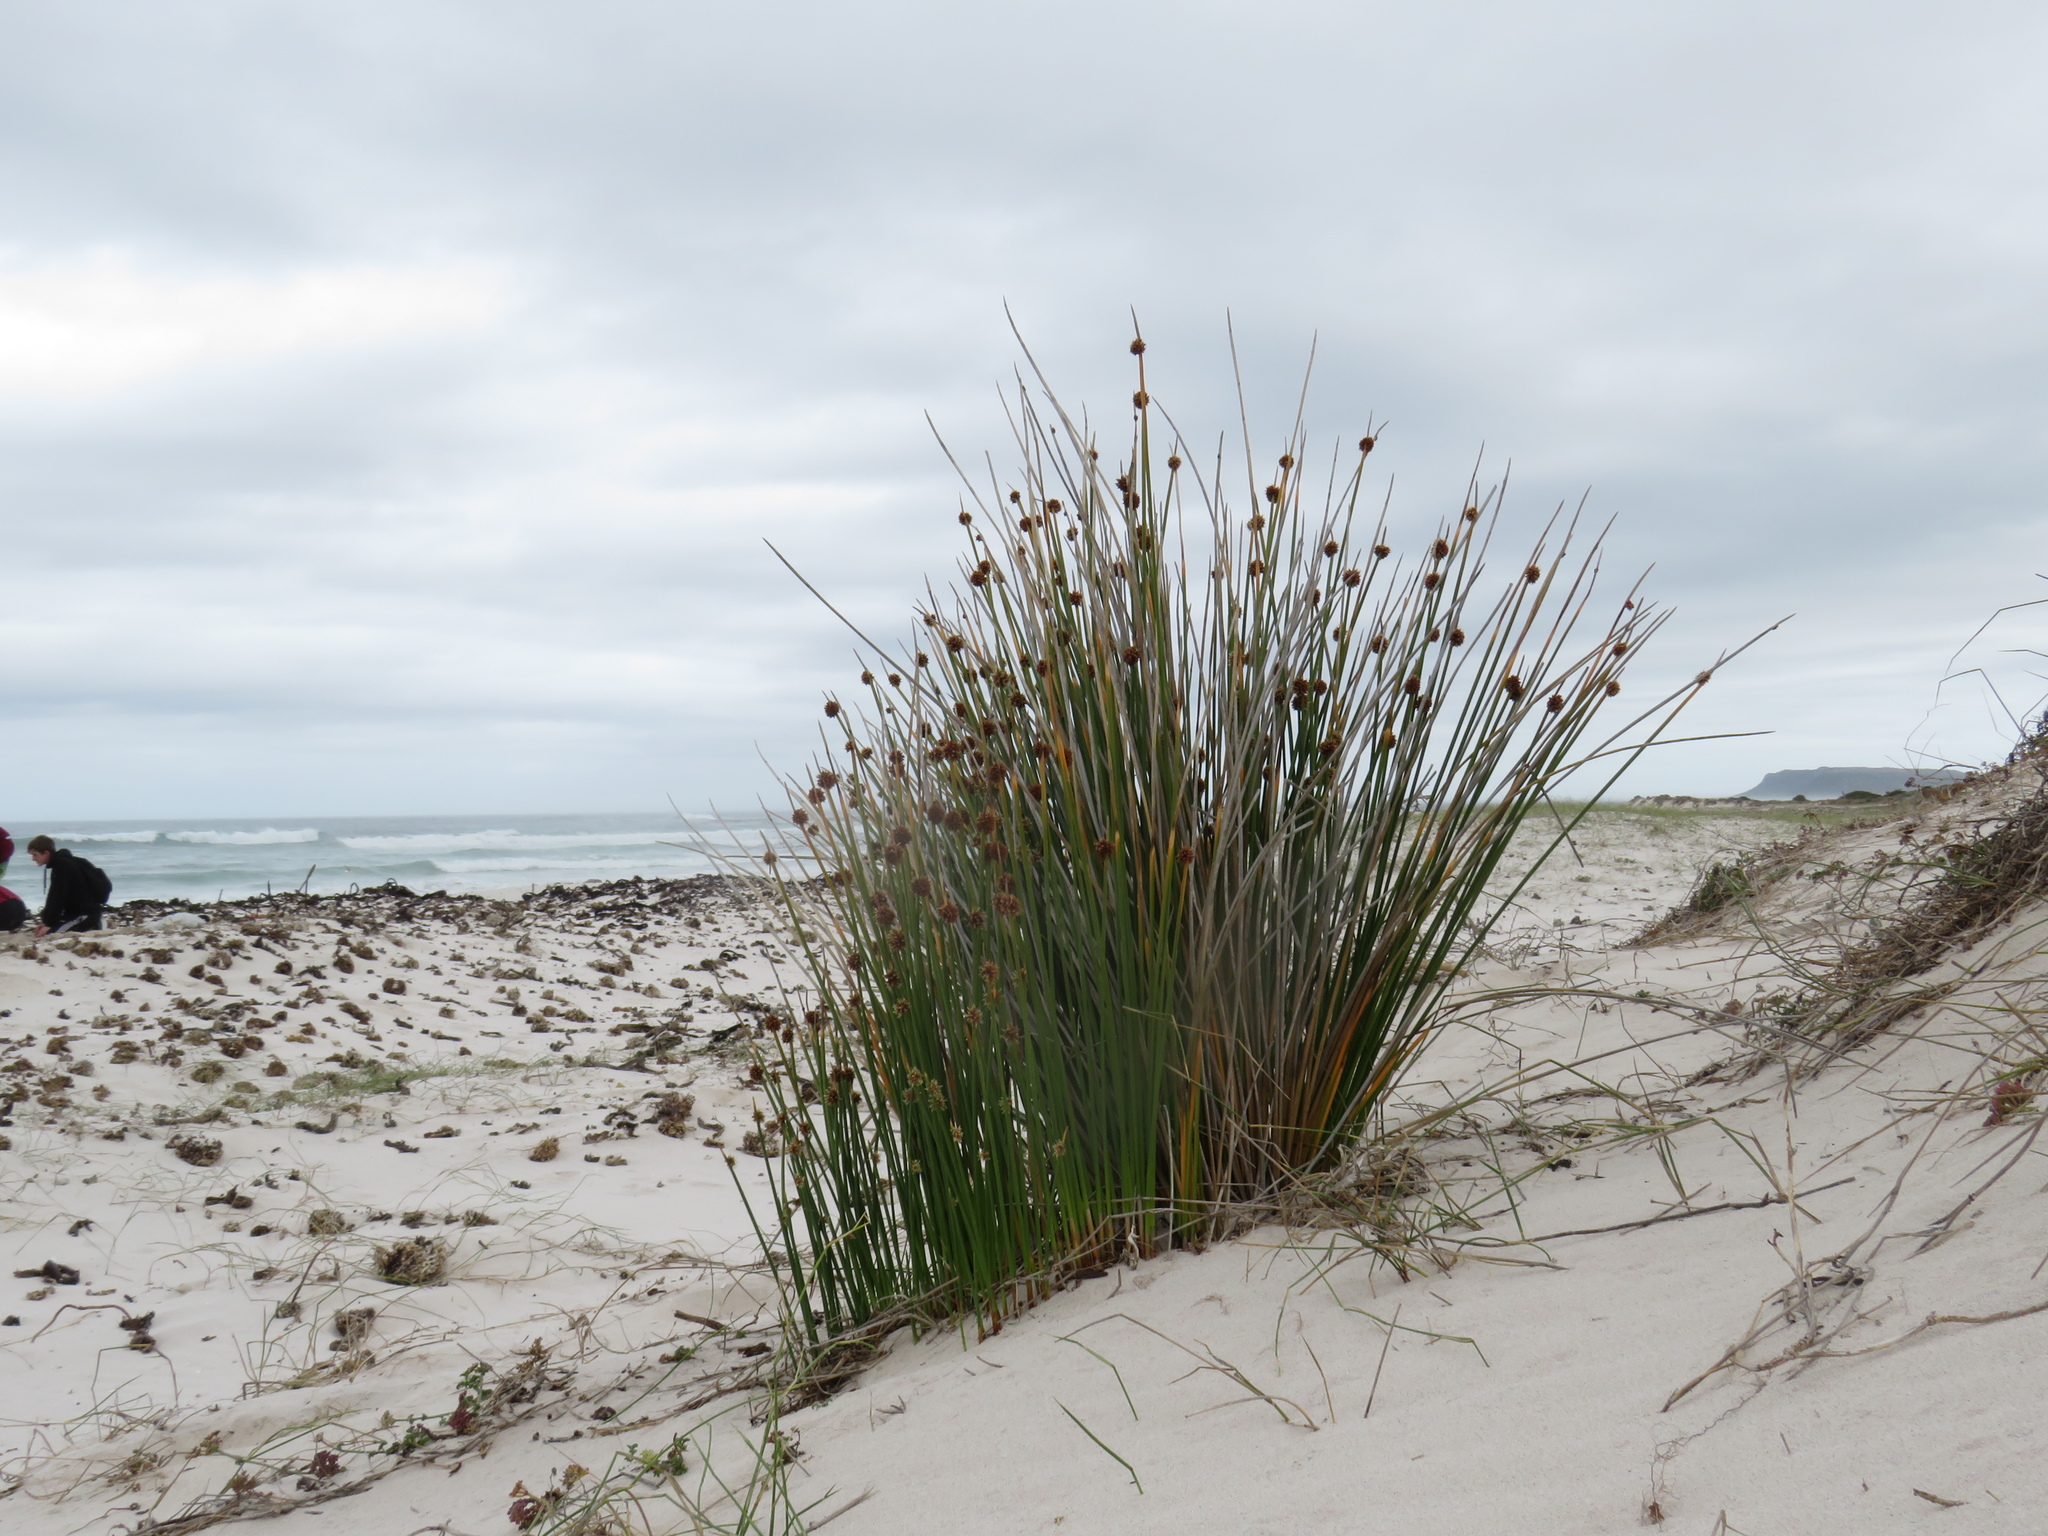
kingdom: Plantae
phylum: Tracheophyta
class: Liliopsida
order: Poales
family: Cyperaceae
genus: Ficinia
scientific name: Ficinia nodosa
